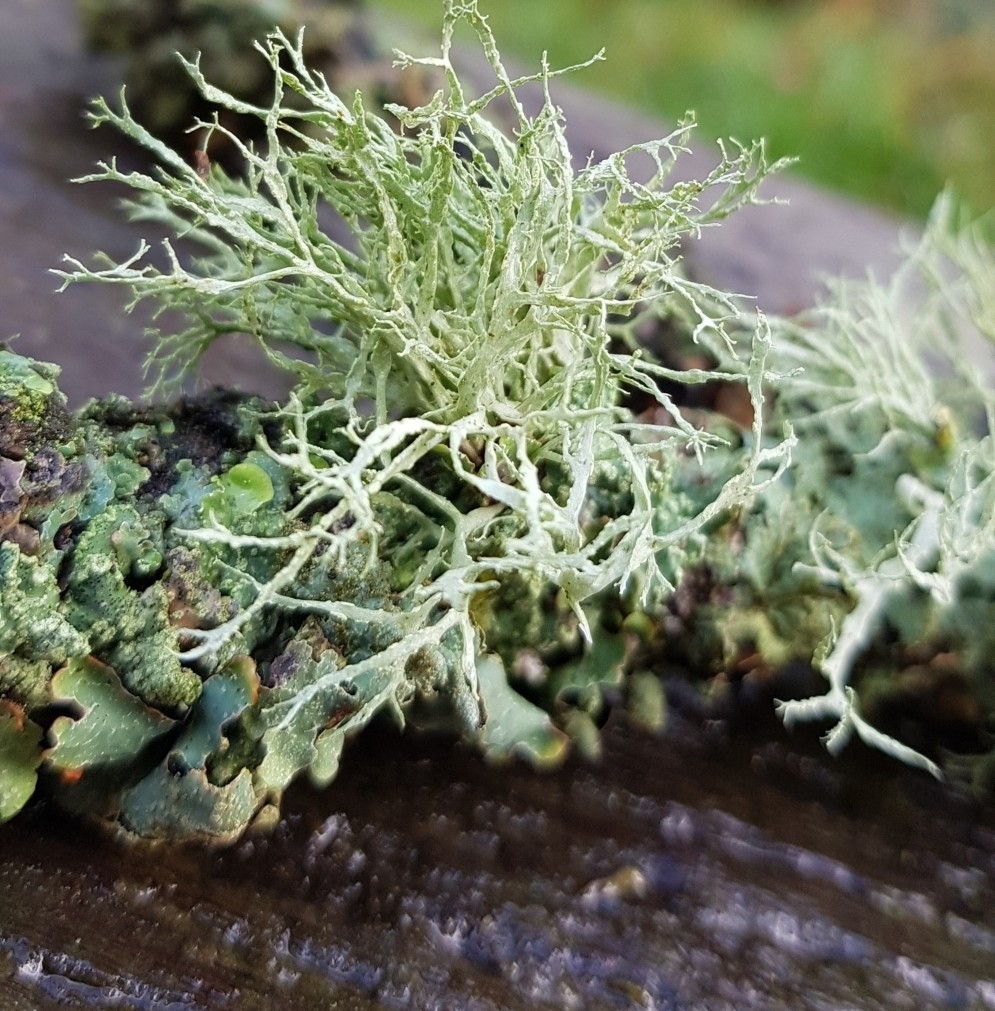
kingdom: Fungi
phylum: Ascomycota
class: Lecanoromycetes
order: Lecanorales
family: Ramalinaceae
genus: Ramalina
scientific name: Ramalina farinacea
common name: Farinose cartilage lichen
